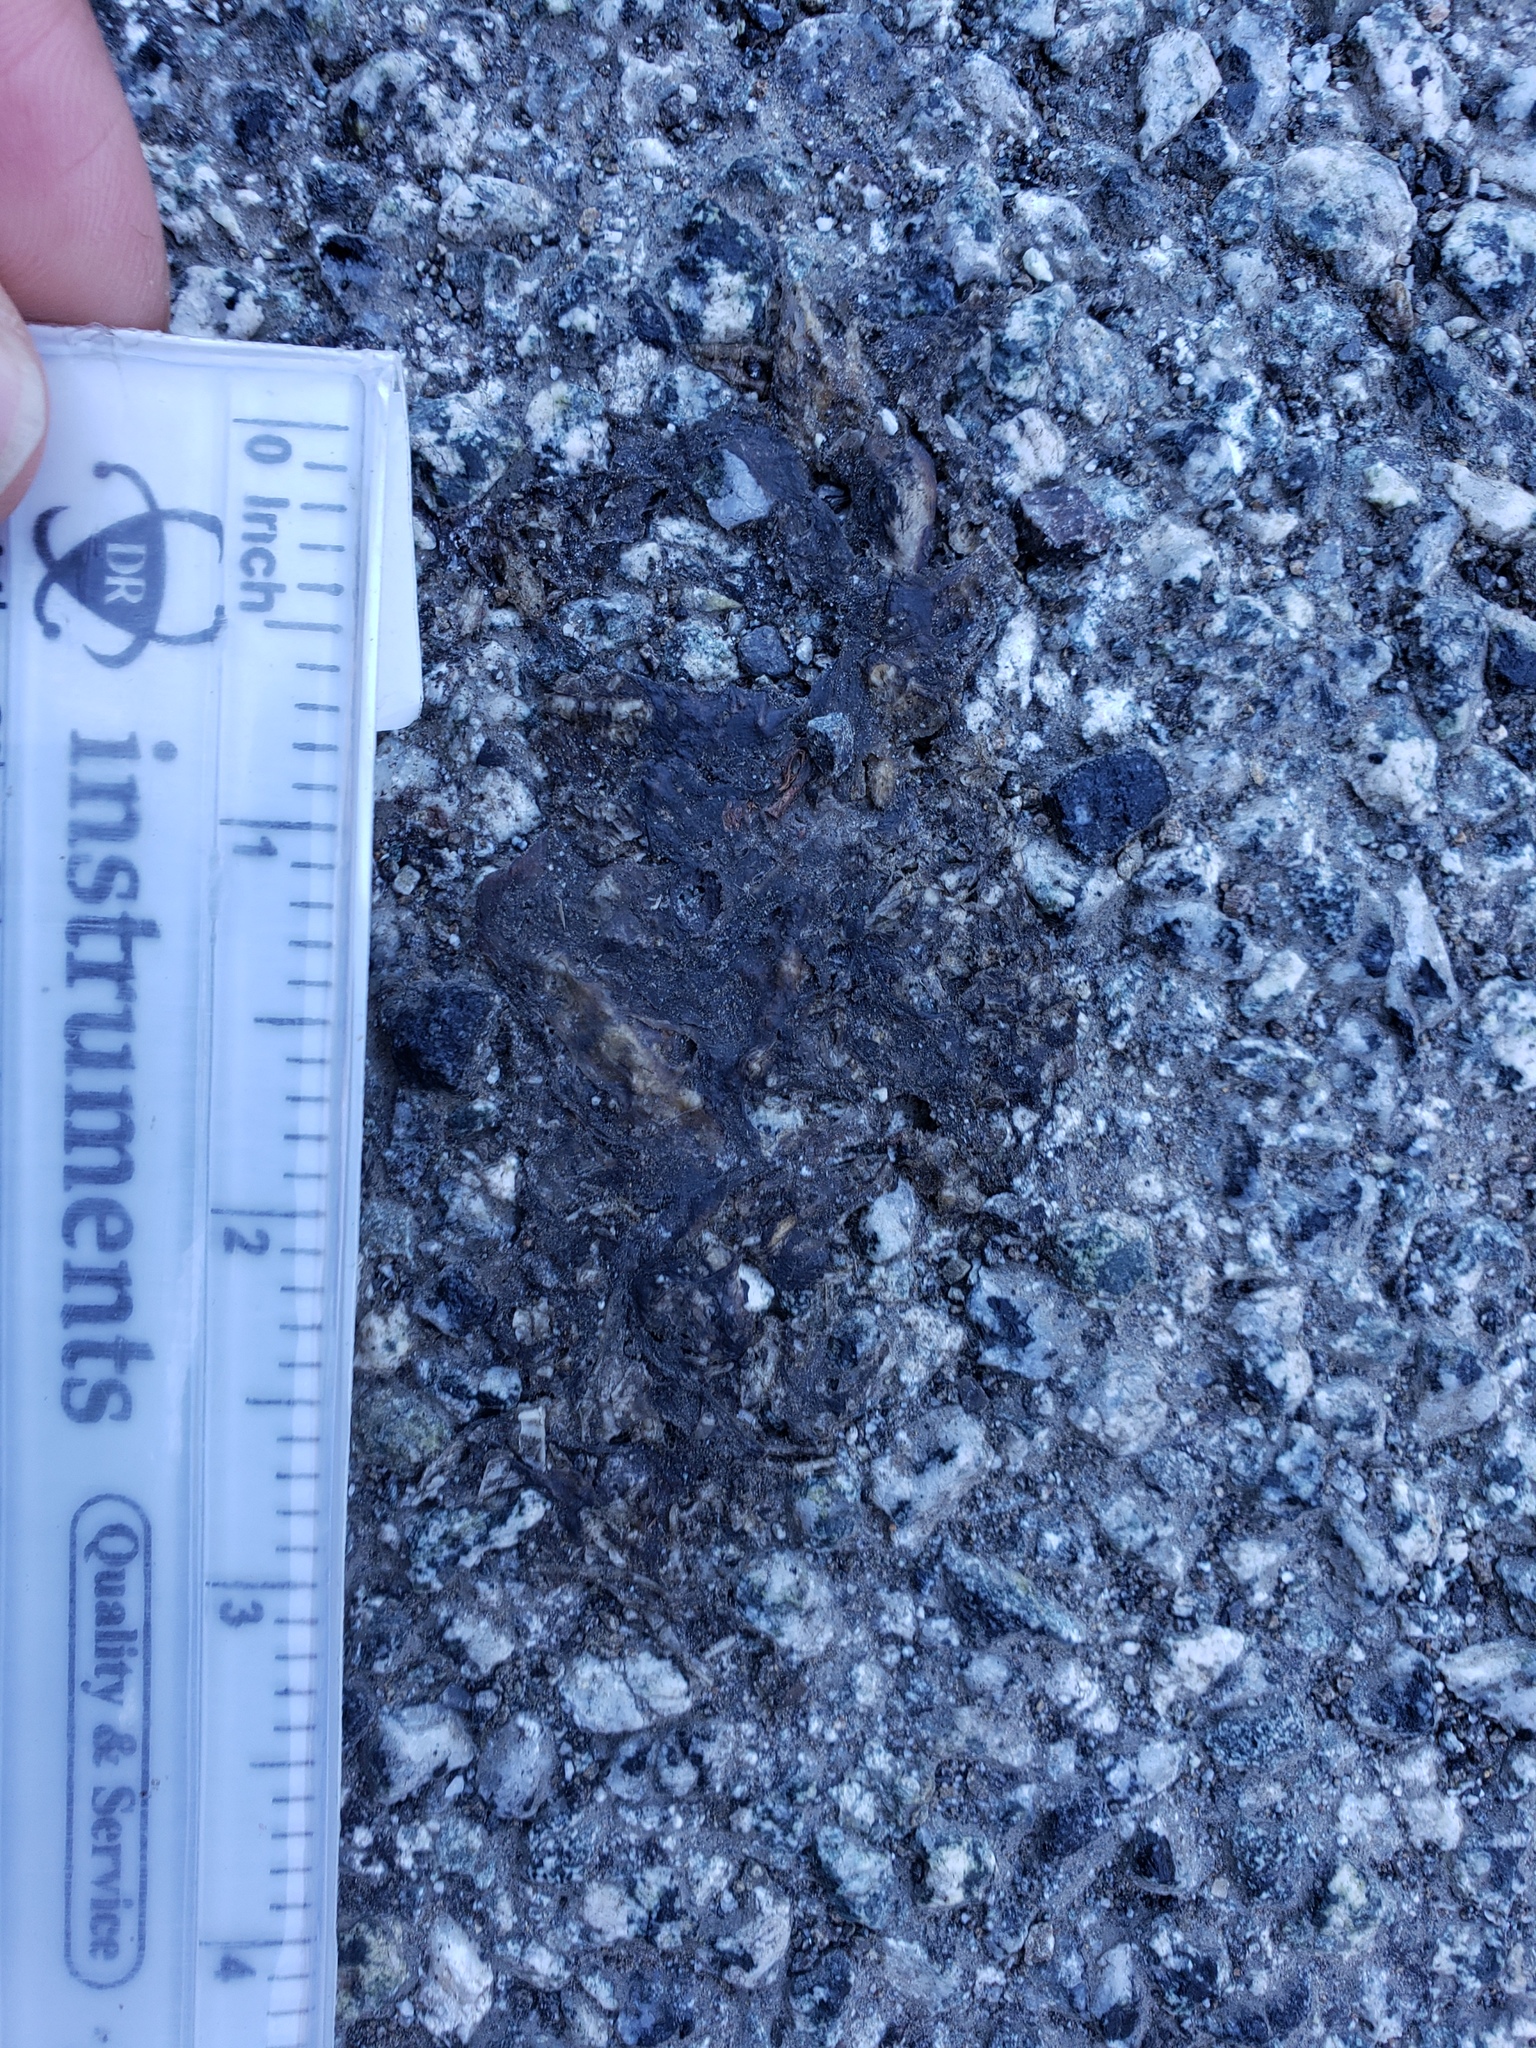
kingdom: Animalia
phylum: Chordata
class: Amphibia
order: Caudata
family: Salamandridae
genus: Taricha
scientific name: Taricha
